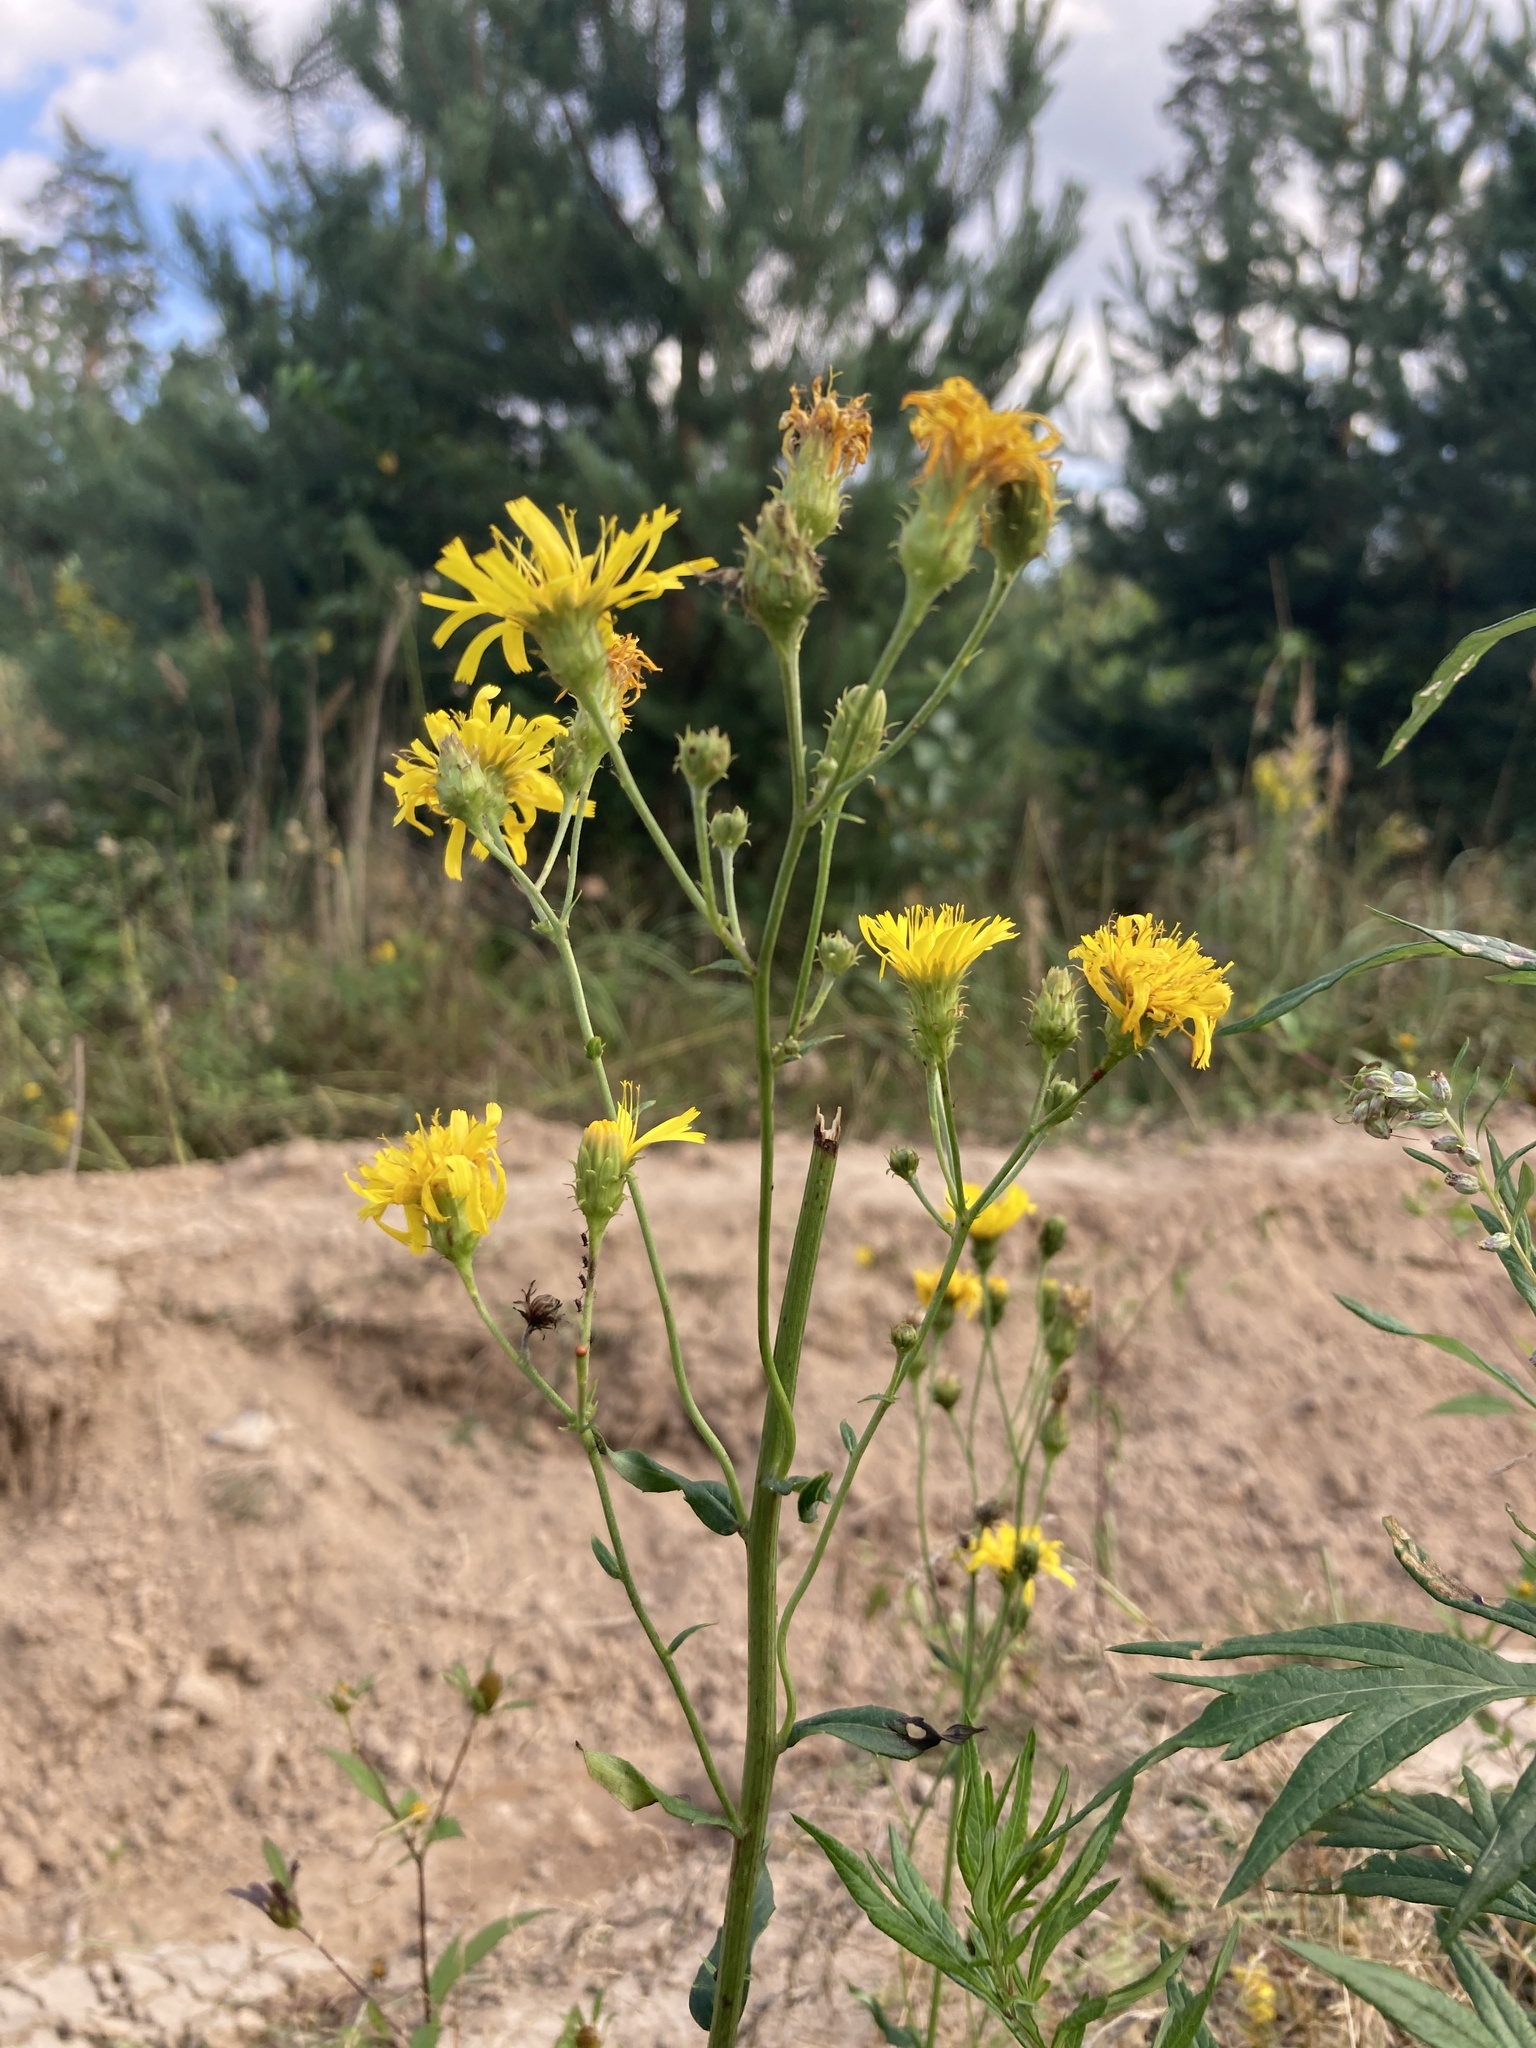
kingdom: Plantae
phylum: Tracheophyta
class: Magnoliopsida
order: Asterales
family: Asteraceae
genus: Hieracium
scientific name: Hieracium umbellatum
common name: Northern hawkweed
